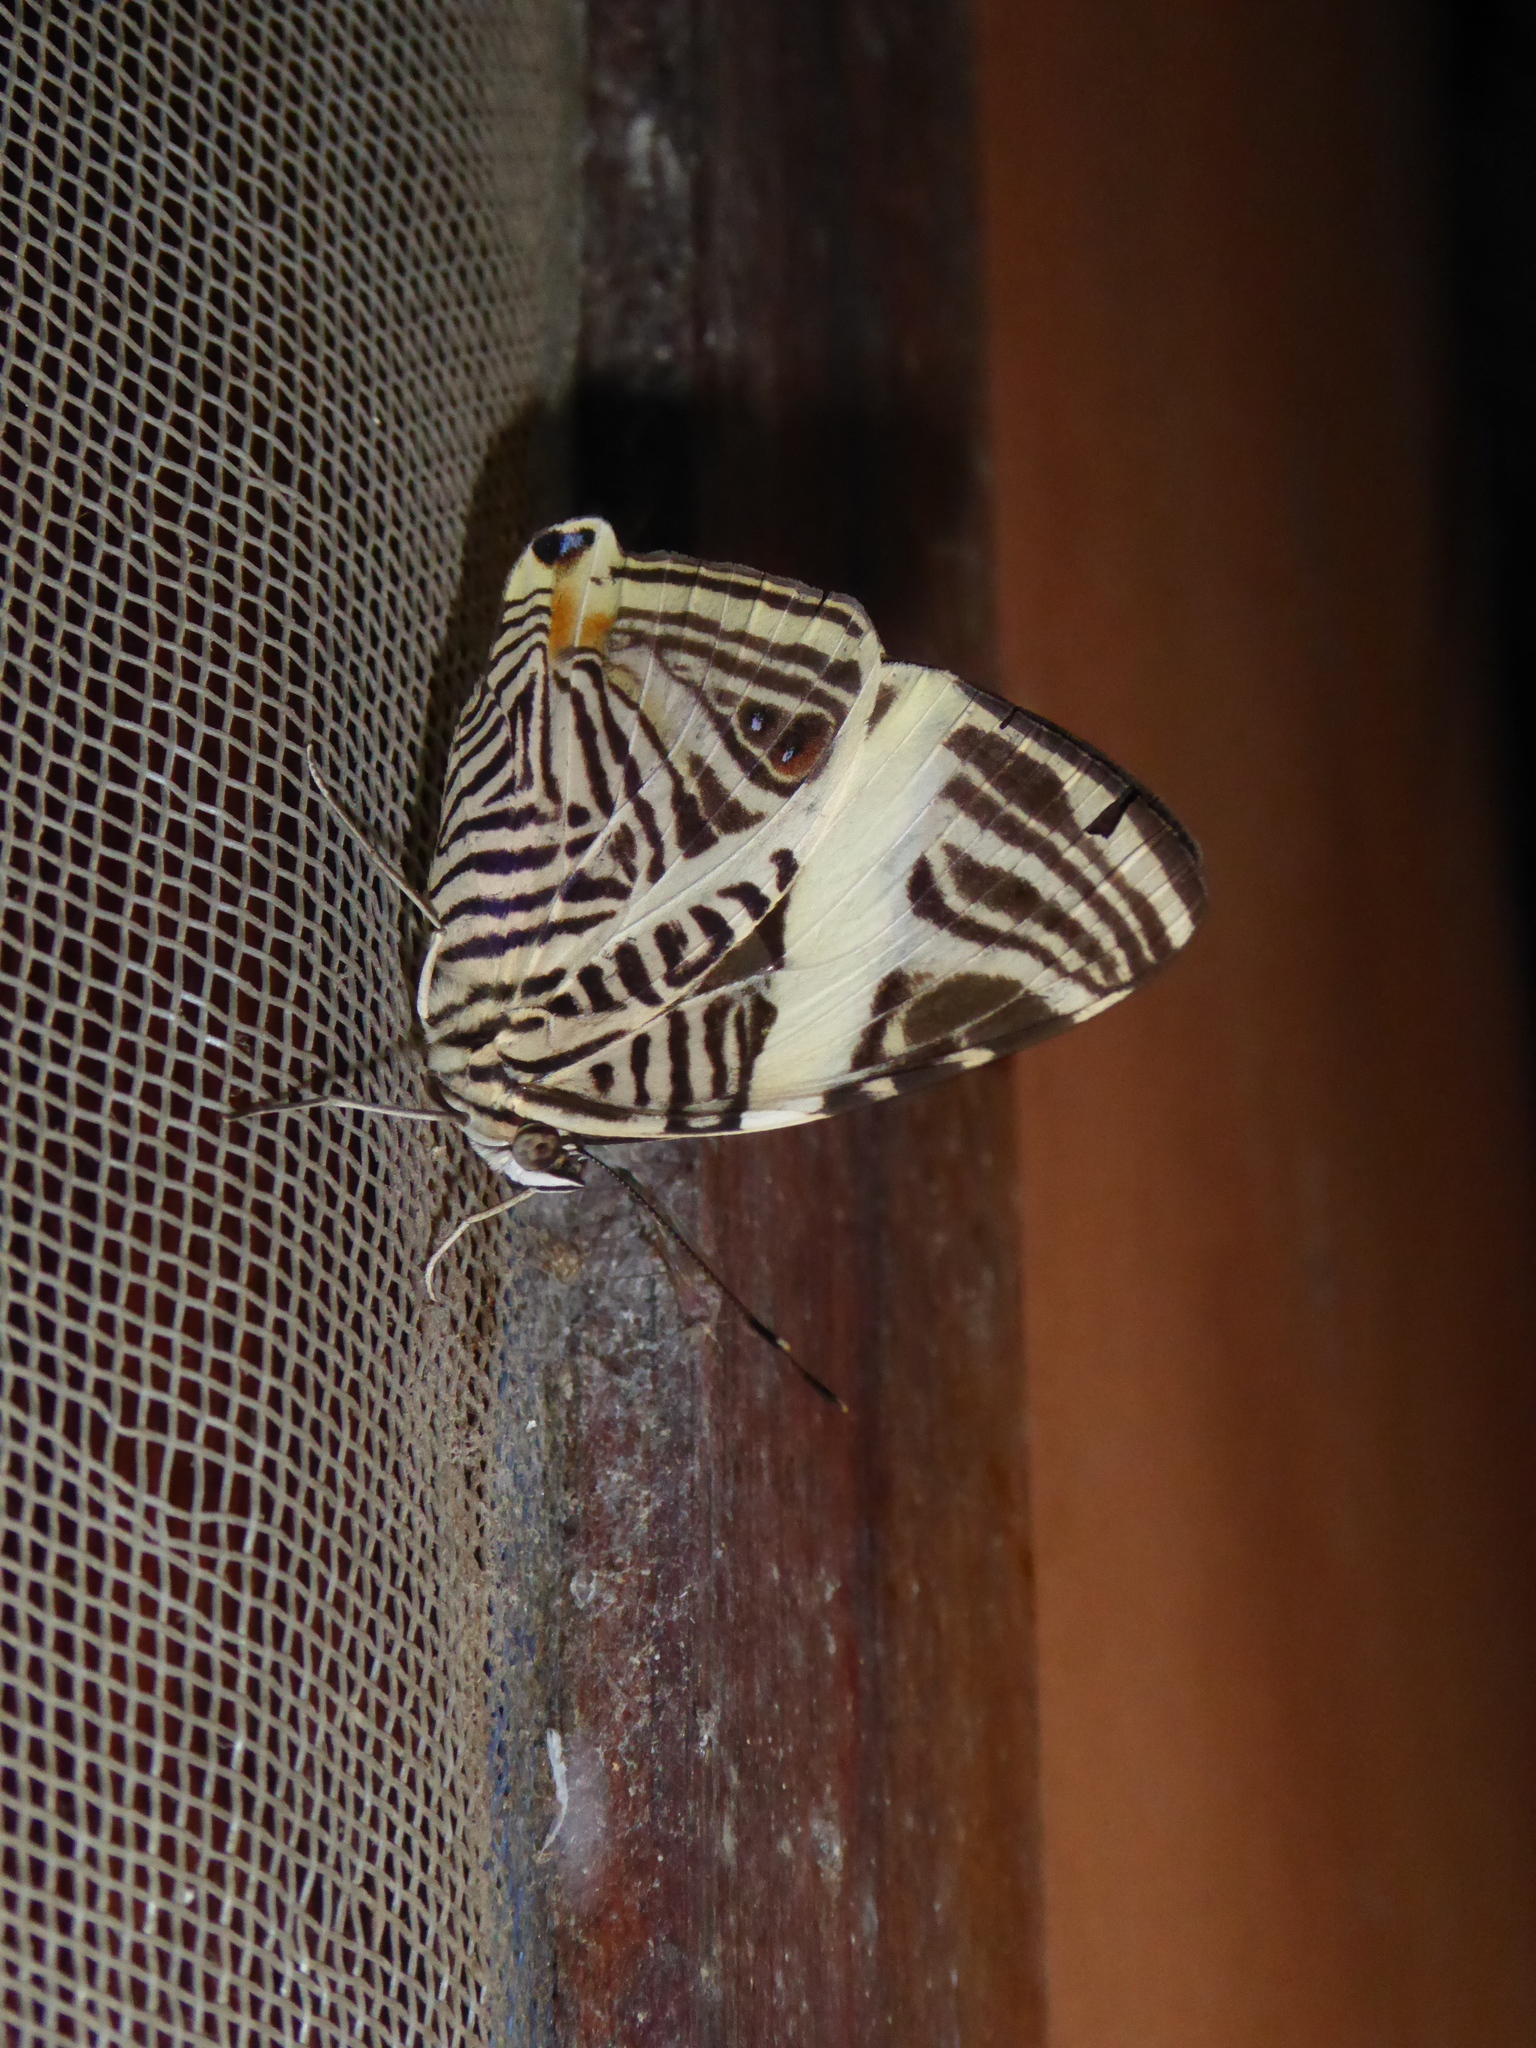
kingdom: Animalia
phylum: Arthropoda
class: Insecta
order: Lepidoptera
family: Nymphalidae
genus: Colobura
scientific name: Colobura dirce
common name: Dirce beauty
